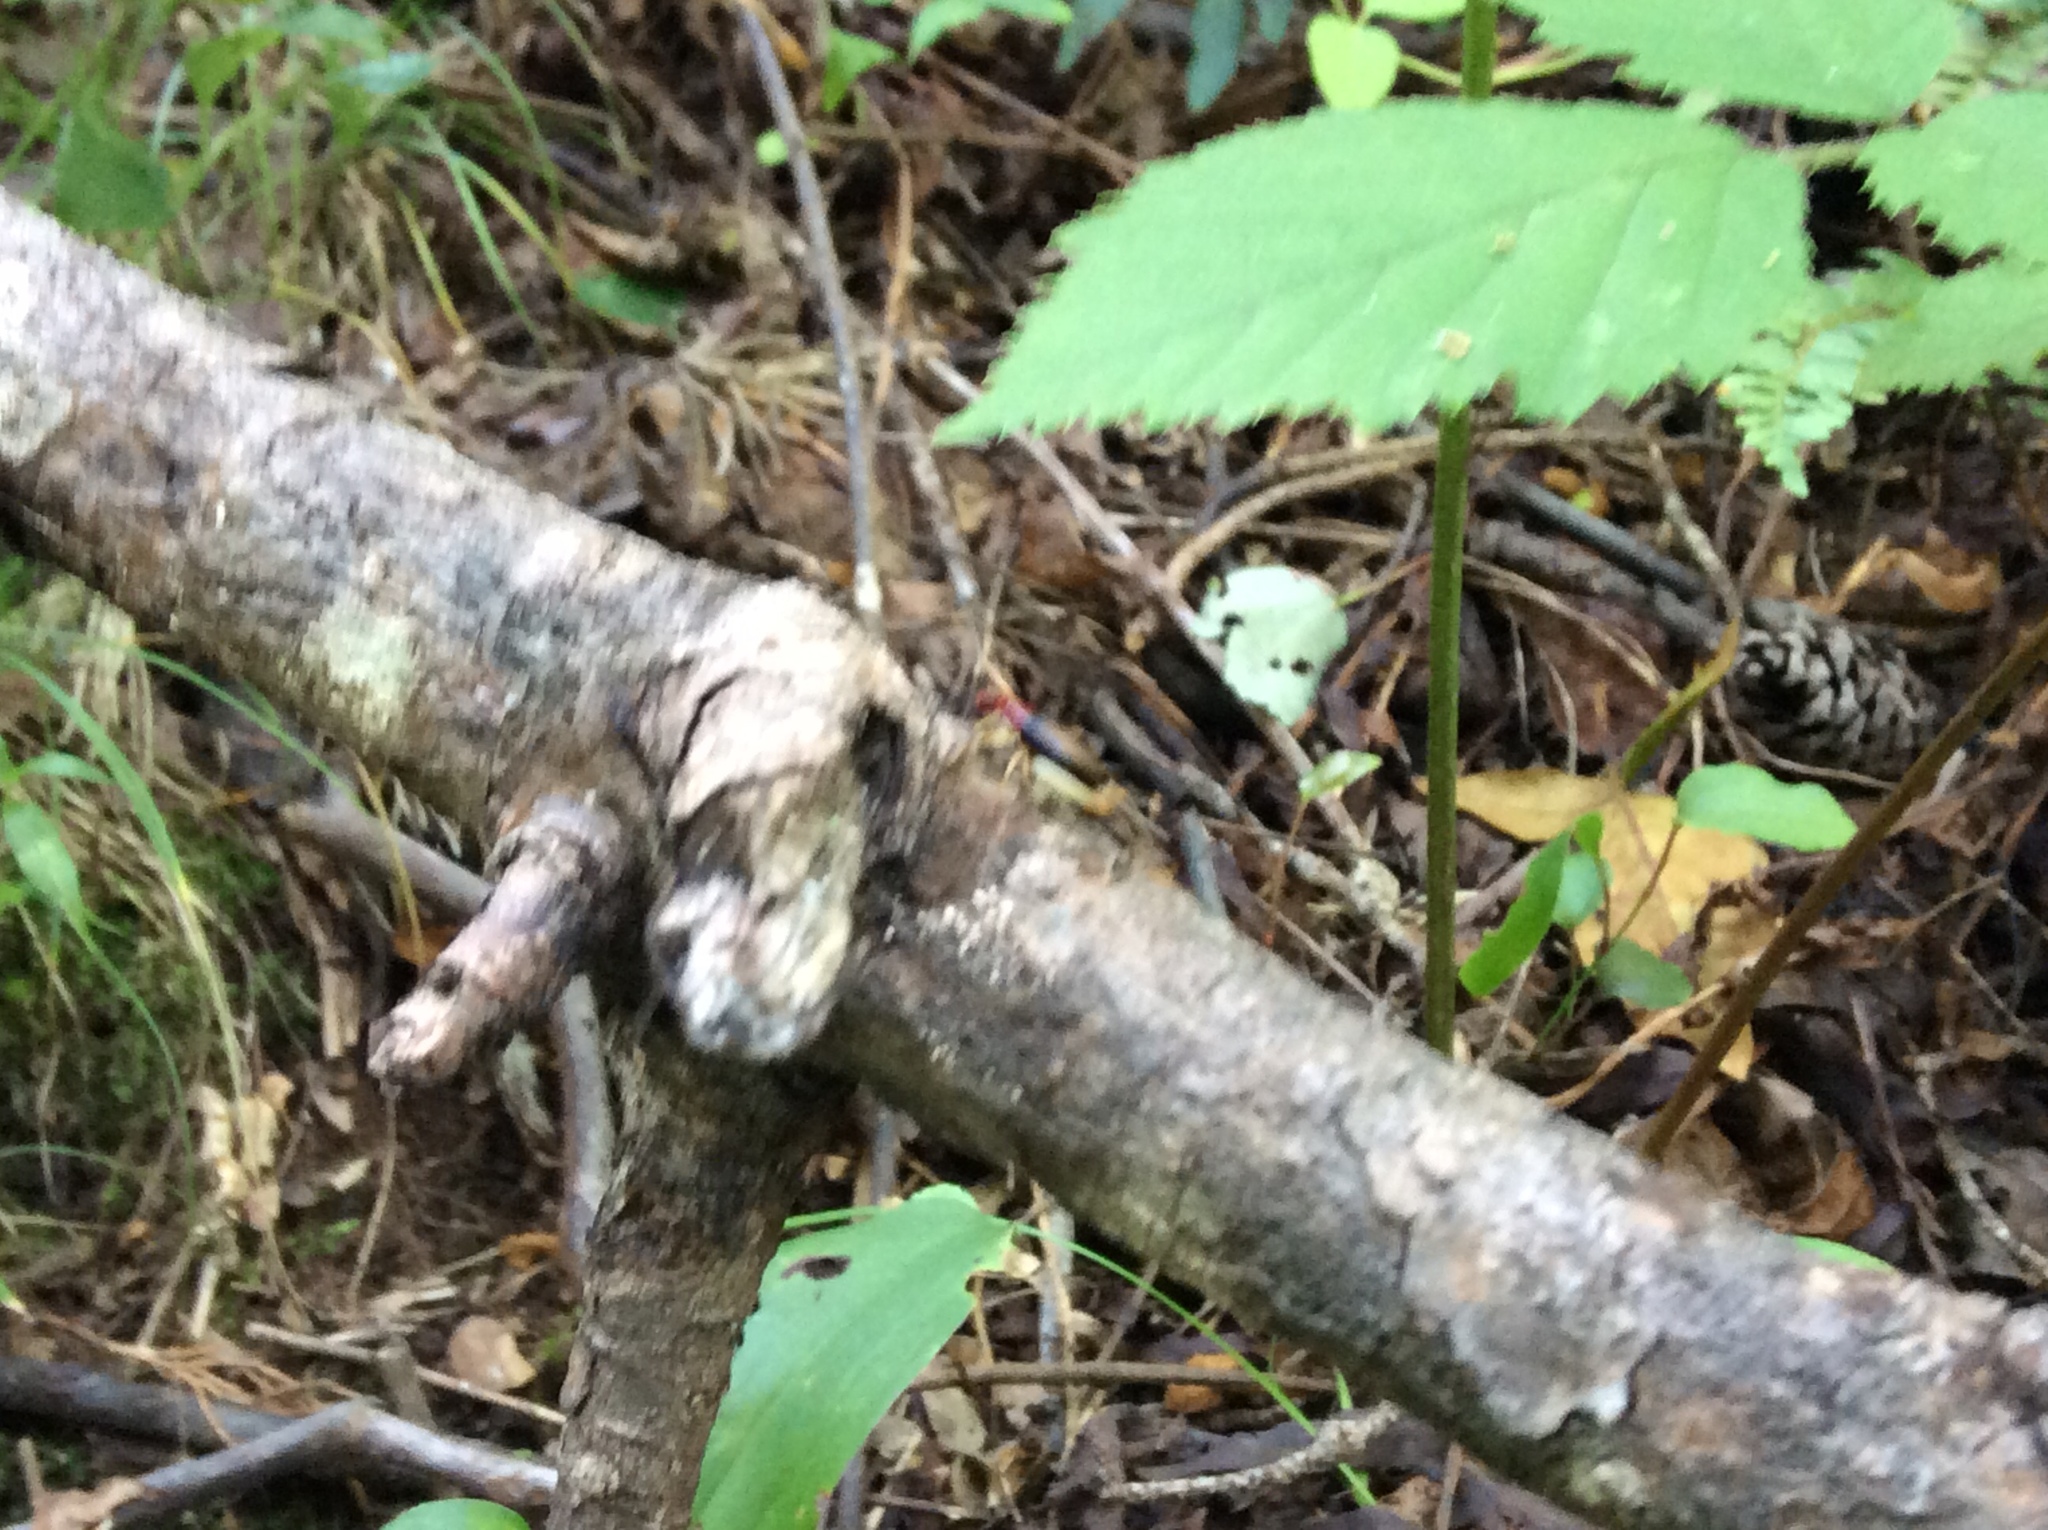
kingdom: Animalia
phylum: Arthropoda
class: Insecta
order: Orthoptera
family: Trigonidiidae
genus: Phyllopalpus
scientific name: Phyllopalpus pulchellus
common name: Handsome trig
